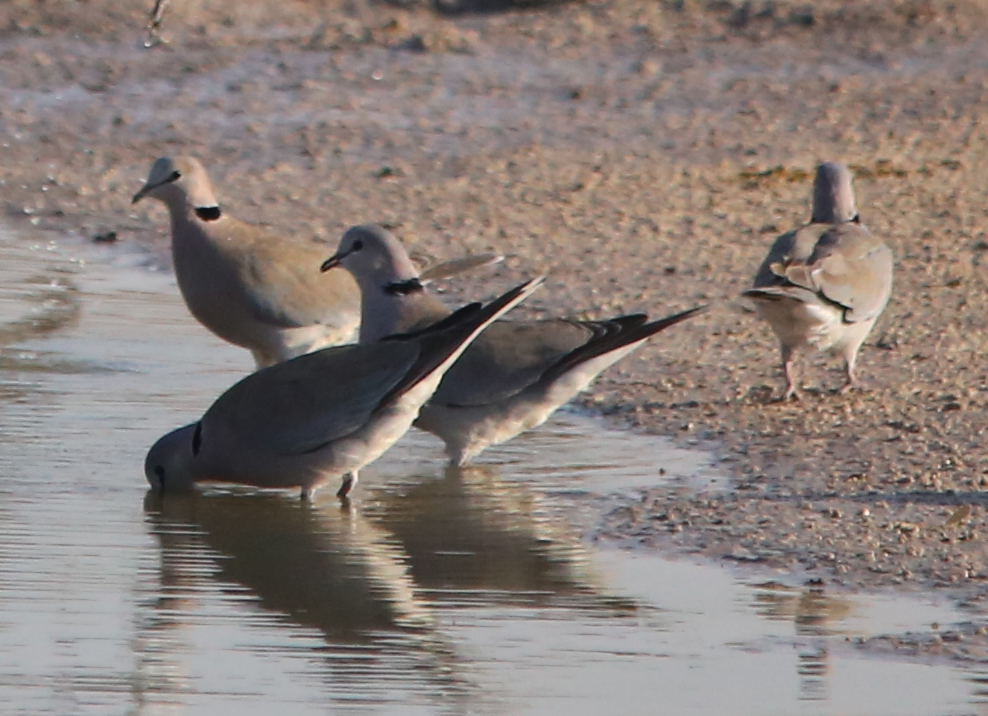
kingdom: Animalia
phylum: Chordata
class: Aves
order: Columbiformes
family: Columbidae
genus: Streptopelia
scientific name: Streptopelia capicola
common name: Ring-necked dove
